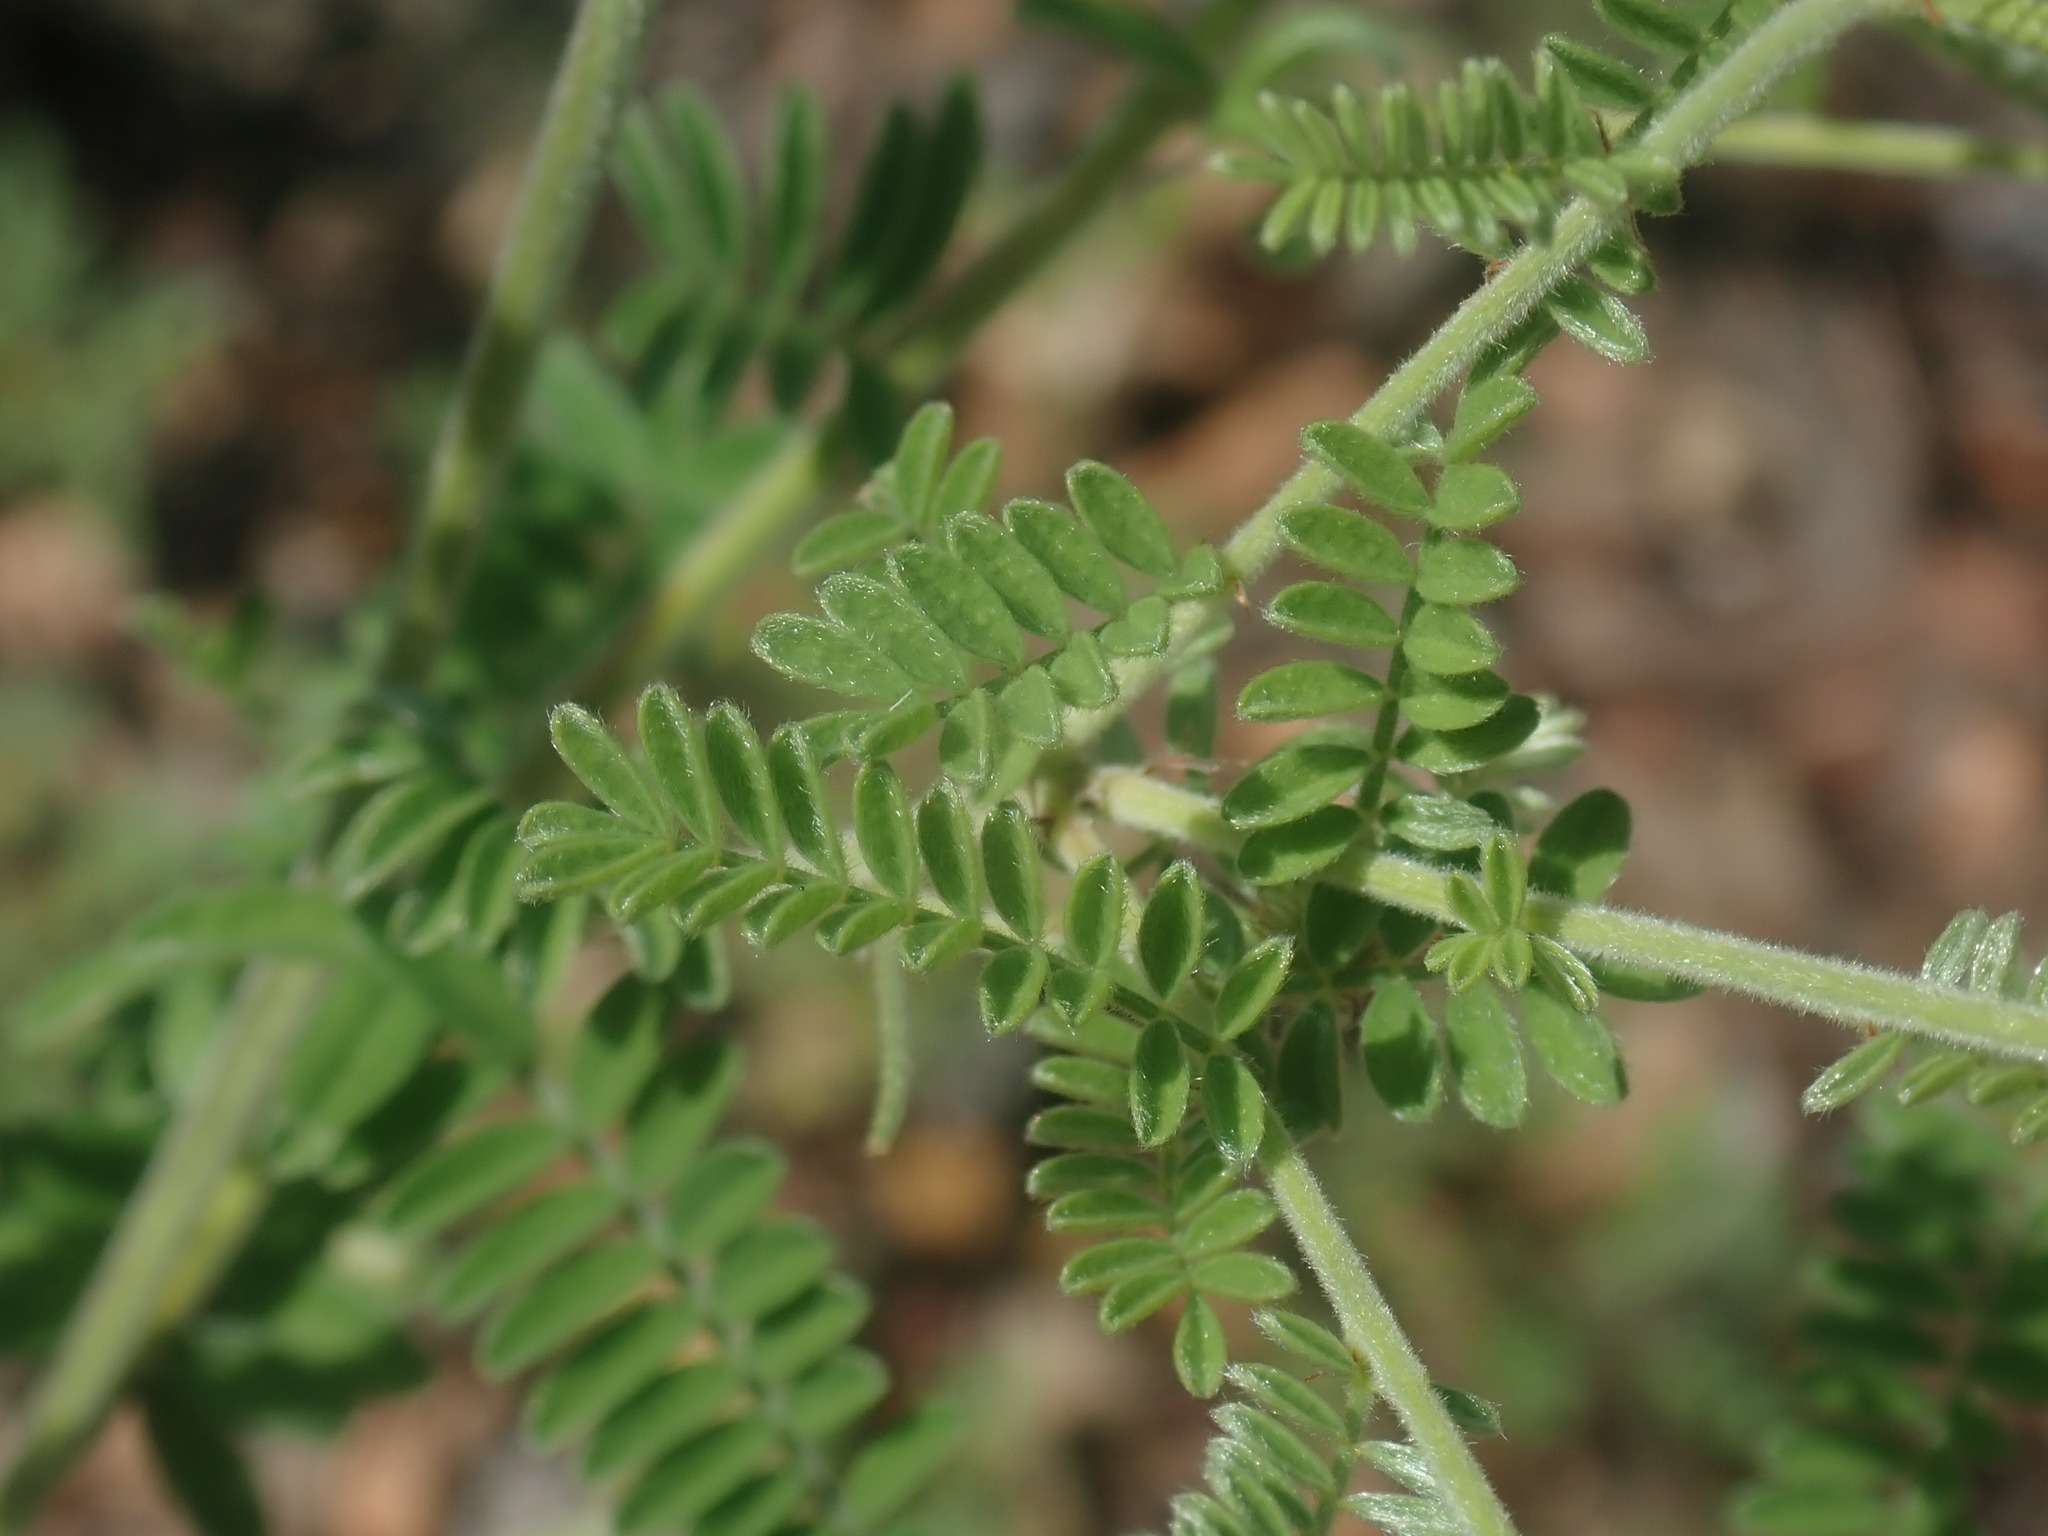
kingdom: Plantae
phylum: Tracheophyta
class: Magnoliopsida
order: Fabales
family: Fabaceae
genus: Dalea
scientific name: Dalea albiflora
